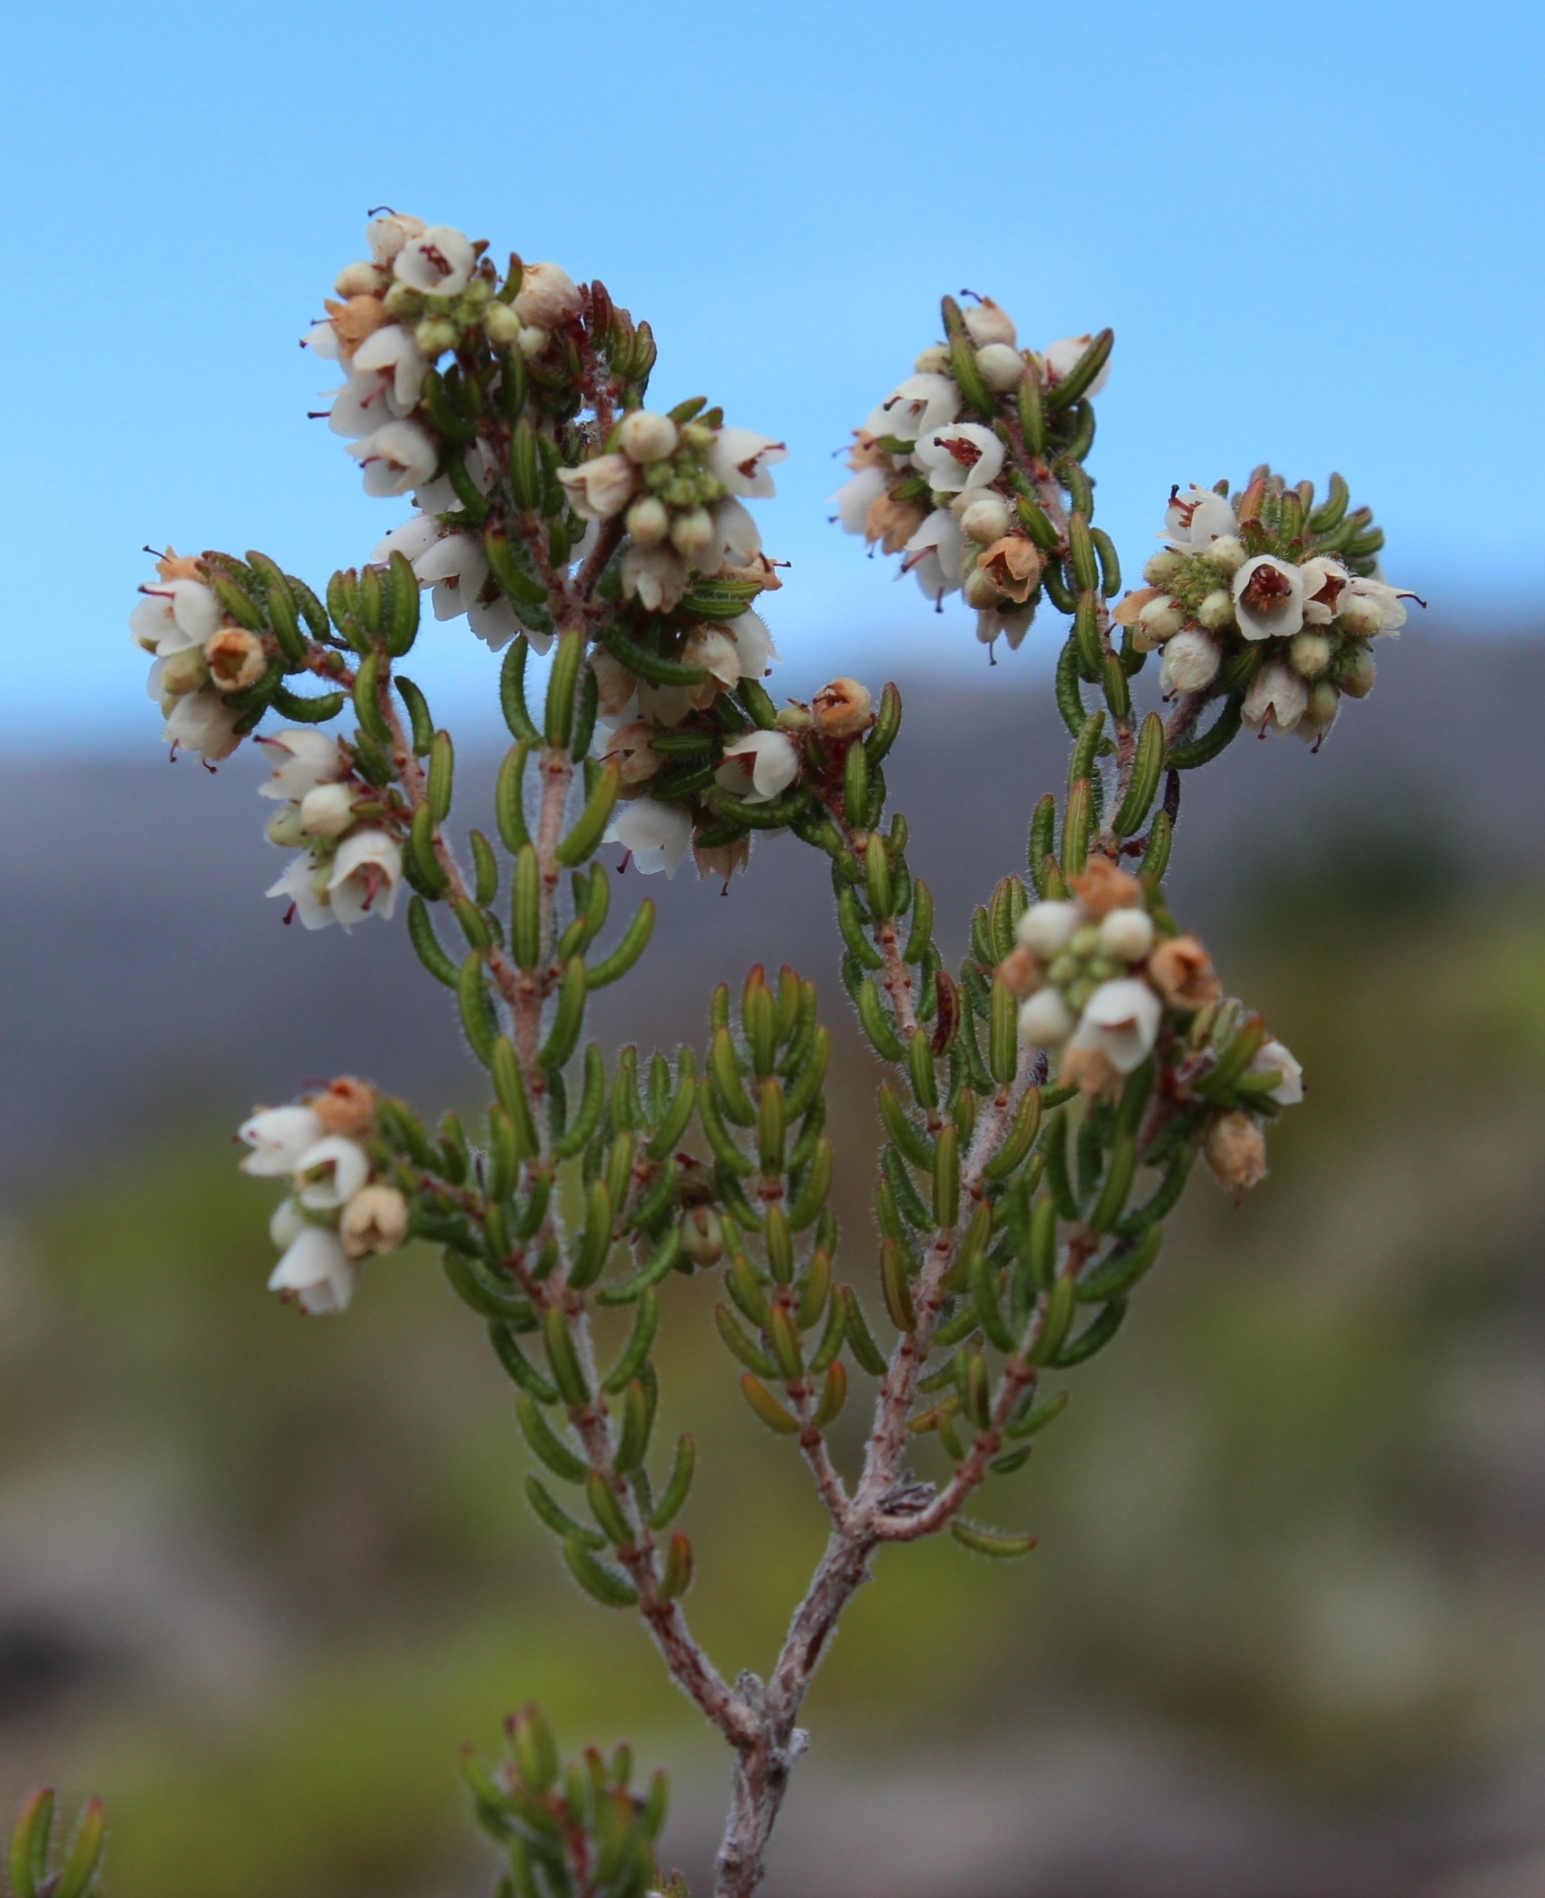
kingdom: Plantae
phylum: Tracheophyta
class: Magnoliopsida
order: Ericales
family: Ericaceae
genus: Erica
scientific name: Erica distorta
